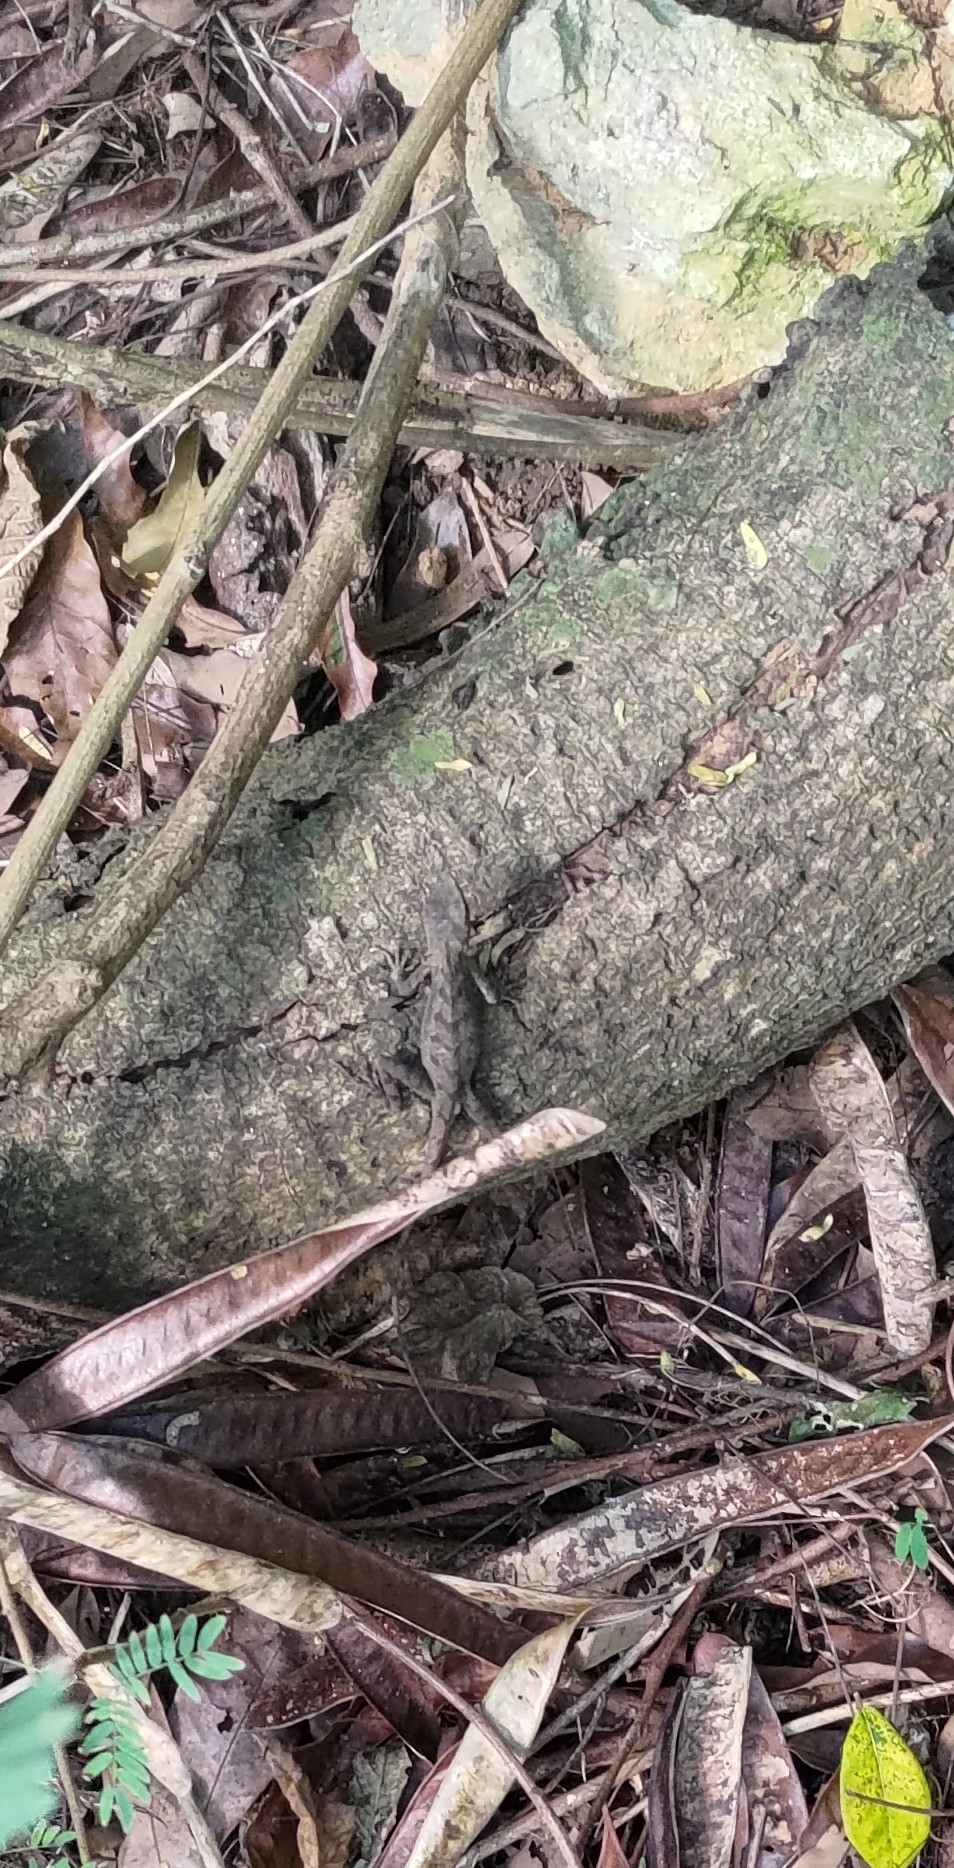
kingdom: Animalia
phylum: Chordata
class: Squamata
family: Agamidae
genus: Diploderma
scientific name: Diploderma swinhonis
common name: Taiwan japalure
